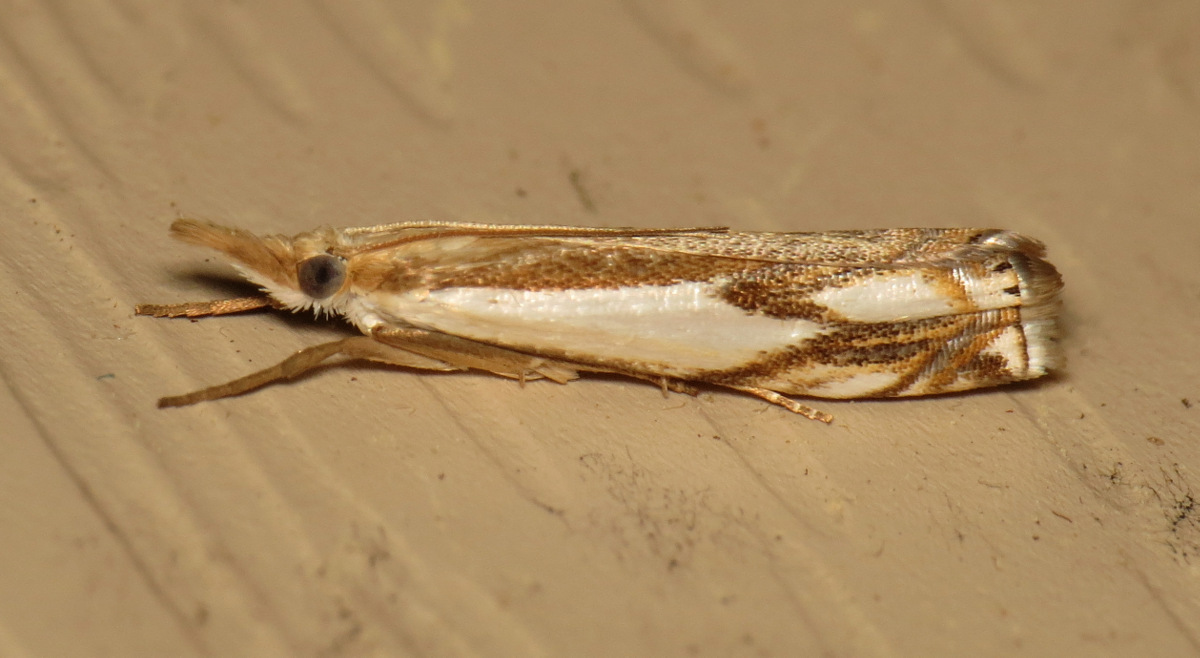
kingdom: Animalia
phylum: Arthropoda
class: Insecta
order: Lepidoptera
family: Crambidae
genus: Crambus
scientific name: Crambus agitatellus
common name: Double-banded grass-veneer
